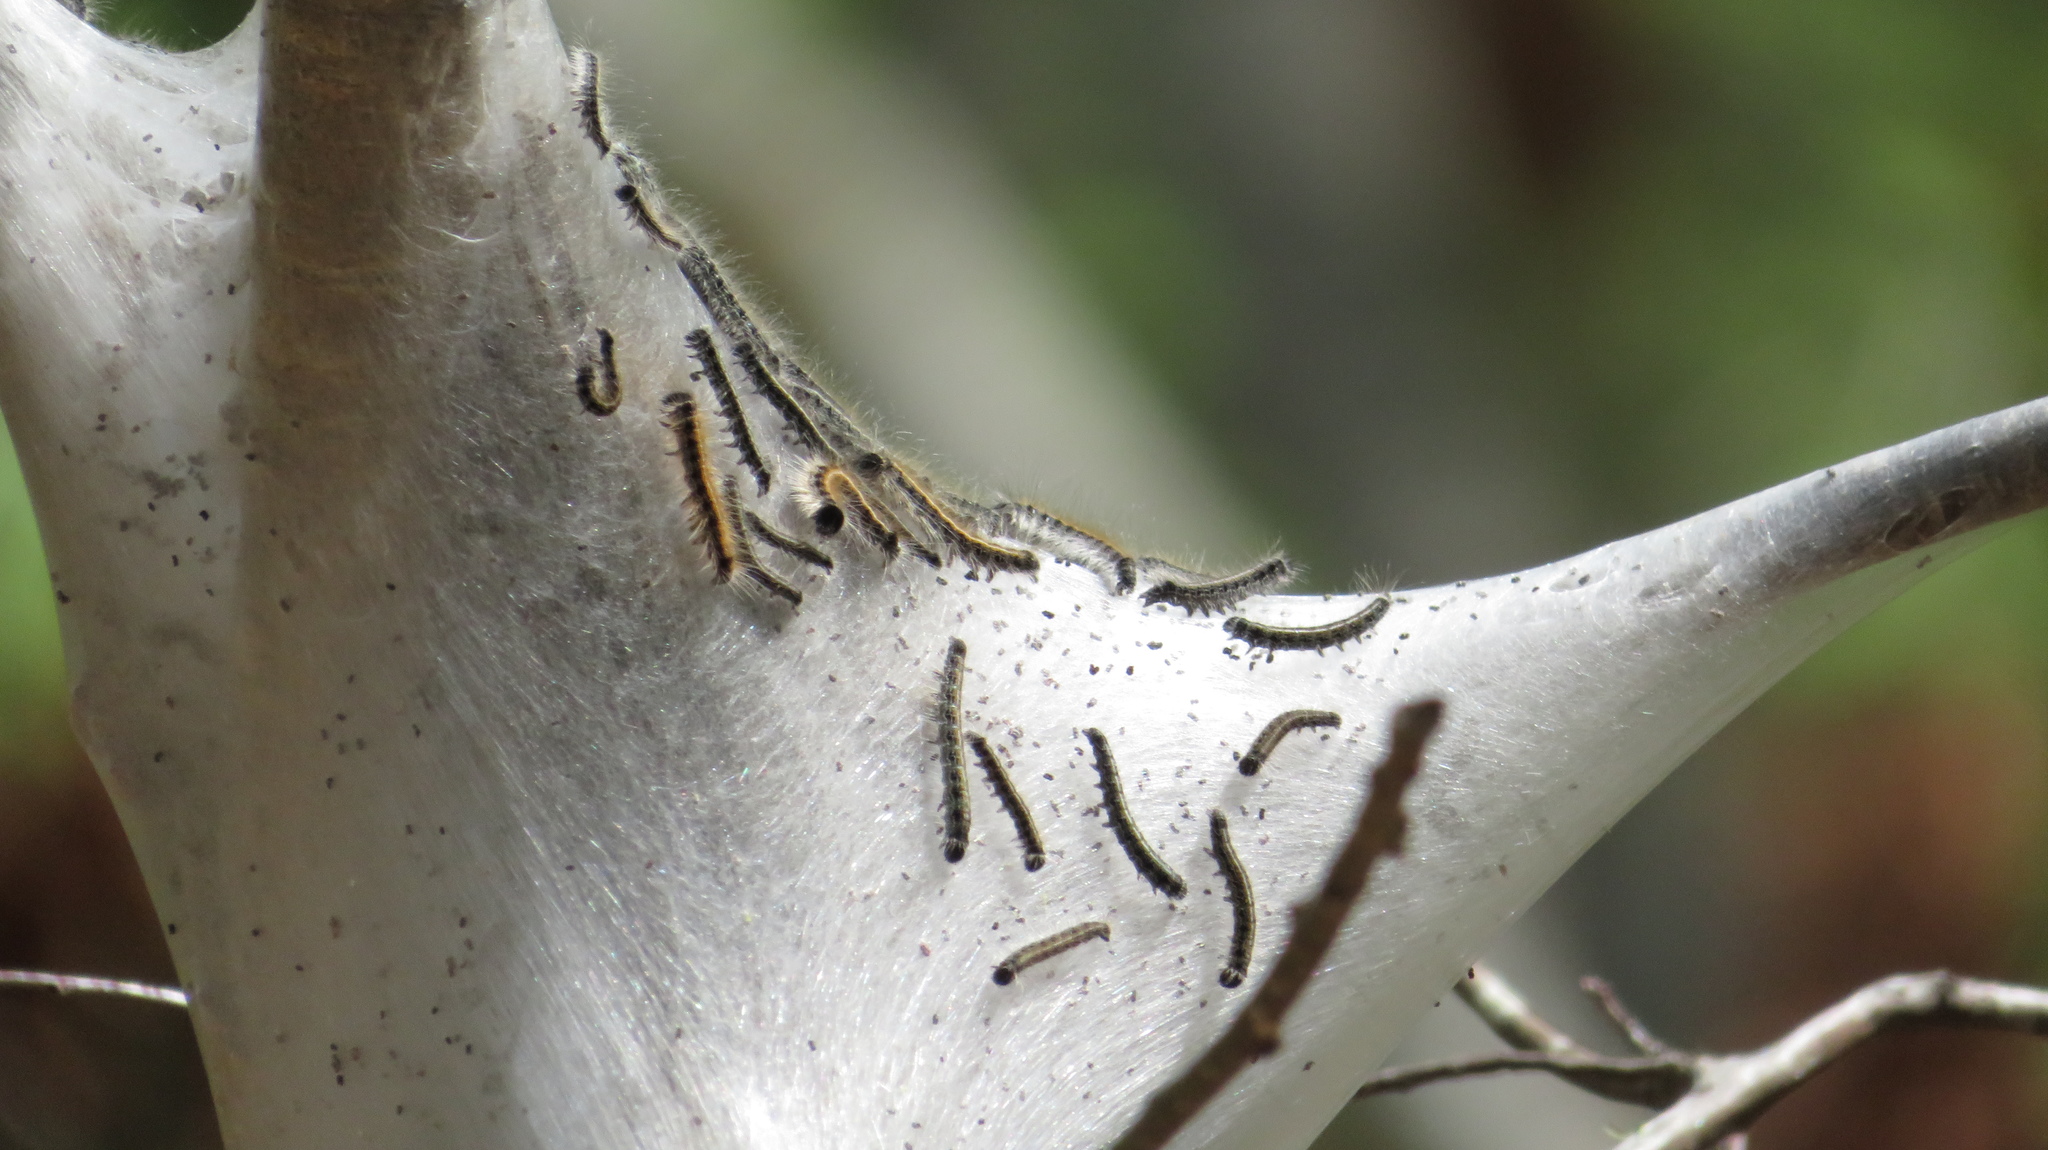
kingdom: Animalia
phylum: Arthropoda
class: Insecta
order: Lepidoptera
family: Lasiocampidae
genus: Malacosoma
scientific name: Malacosoma americana
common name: Eastern tent caterpillar moth
